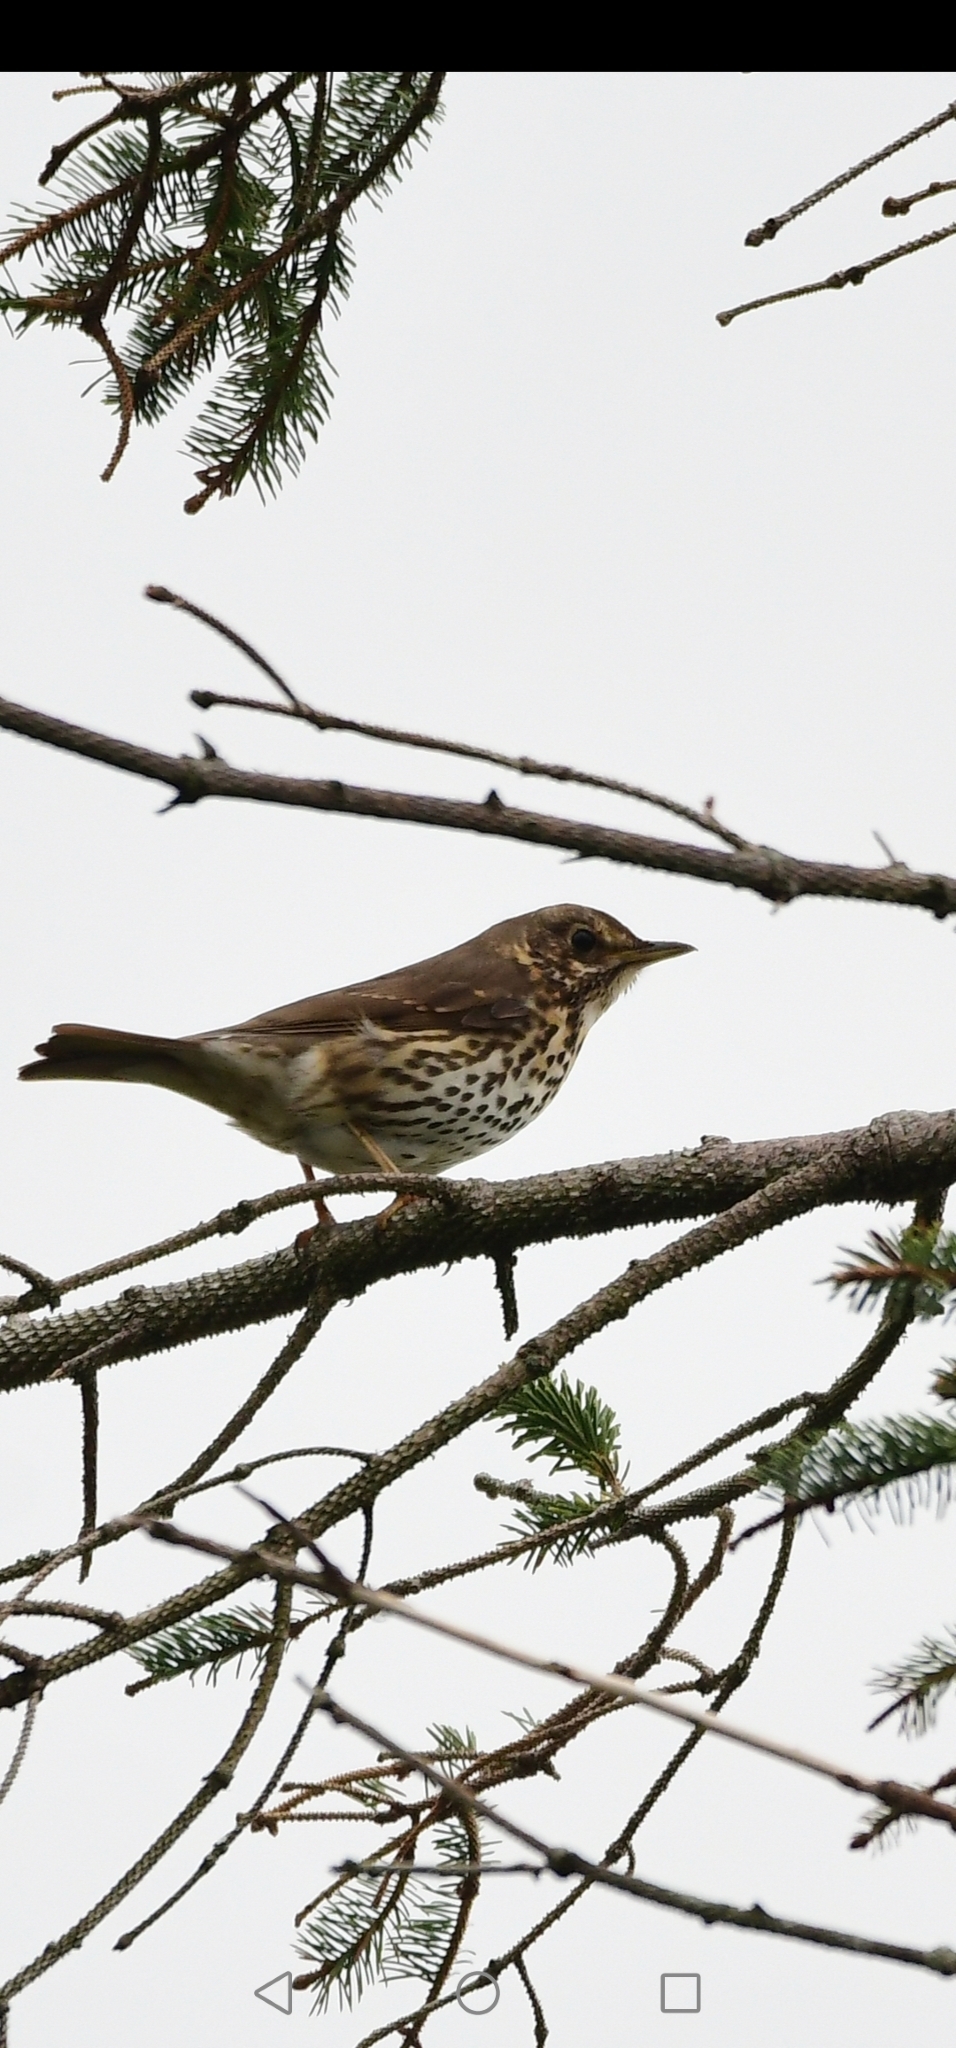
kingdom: Animalia
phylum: Chordata
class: Aves
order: Passeriformes
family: Turdidae
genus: Turdus
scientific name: Turdus philomelos
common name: Song thrush
